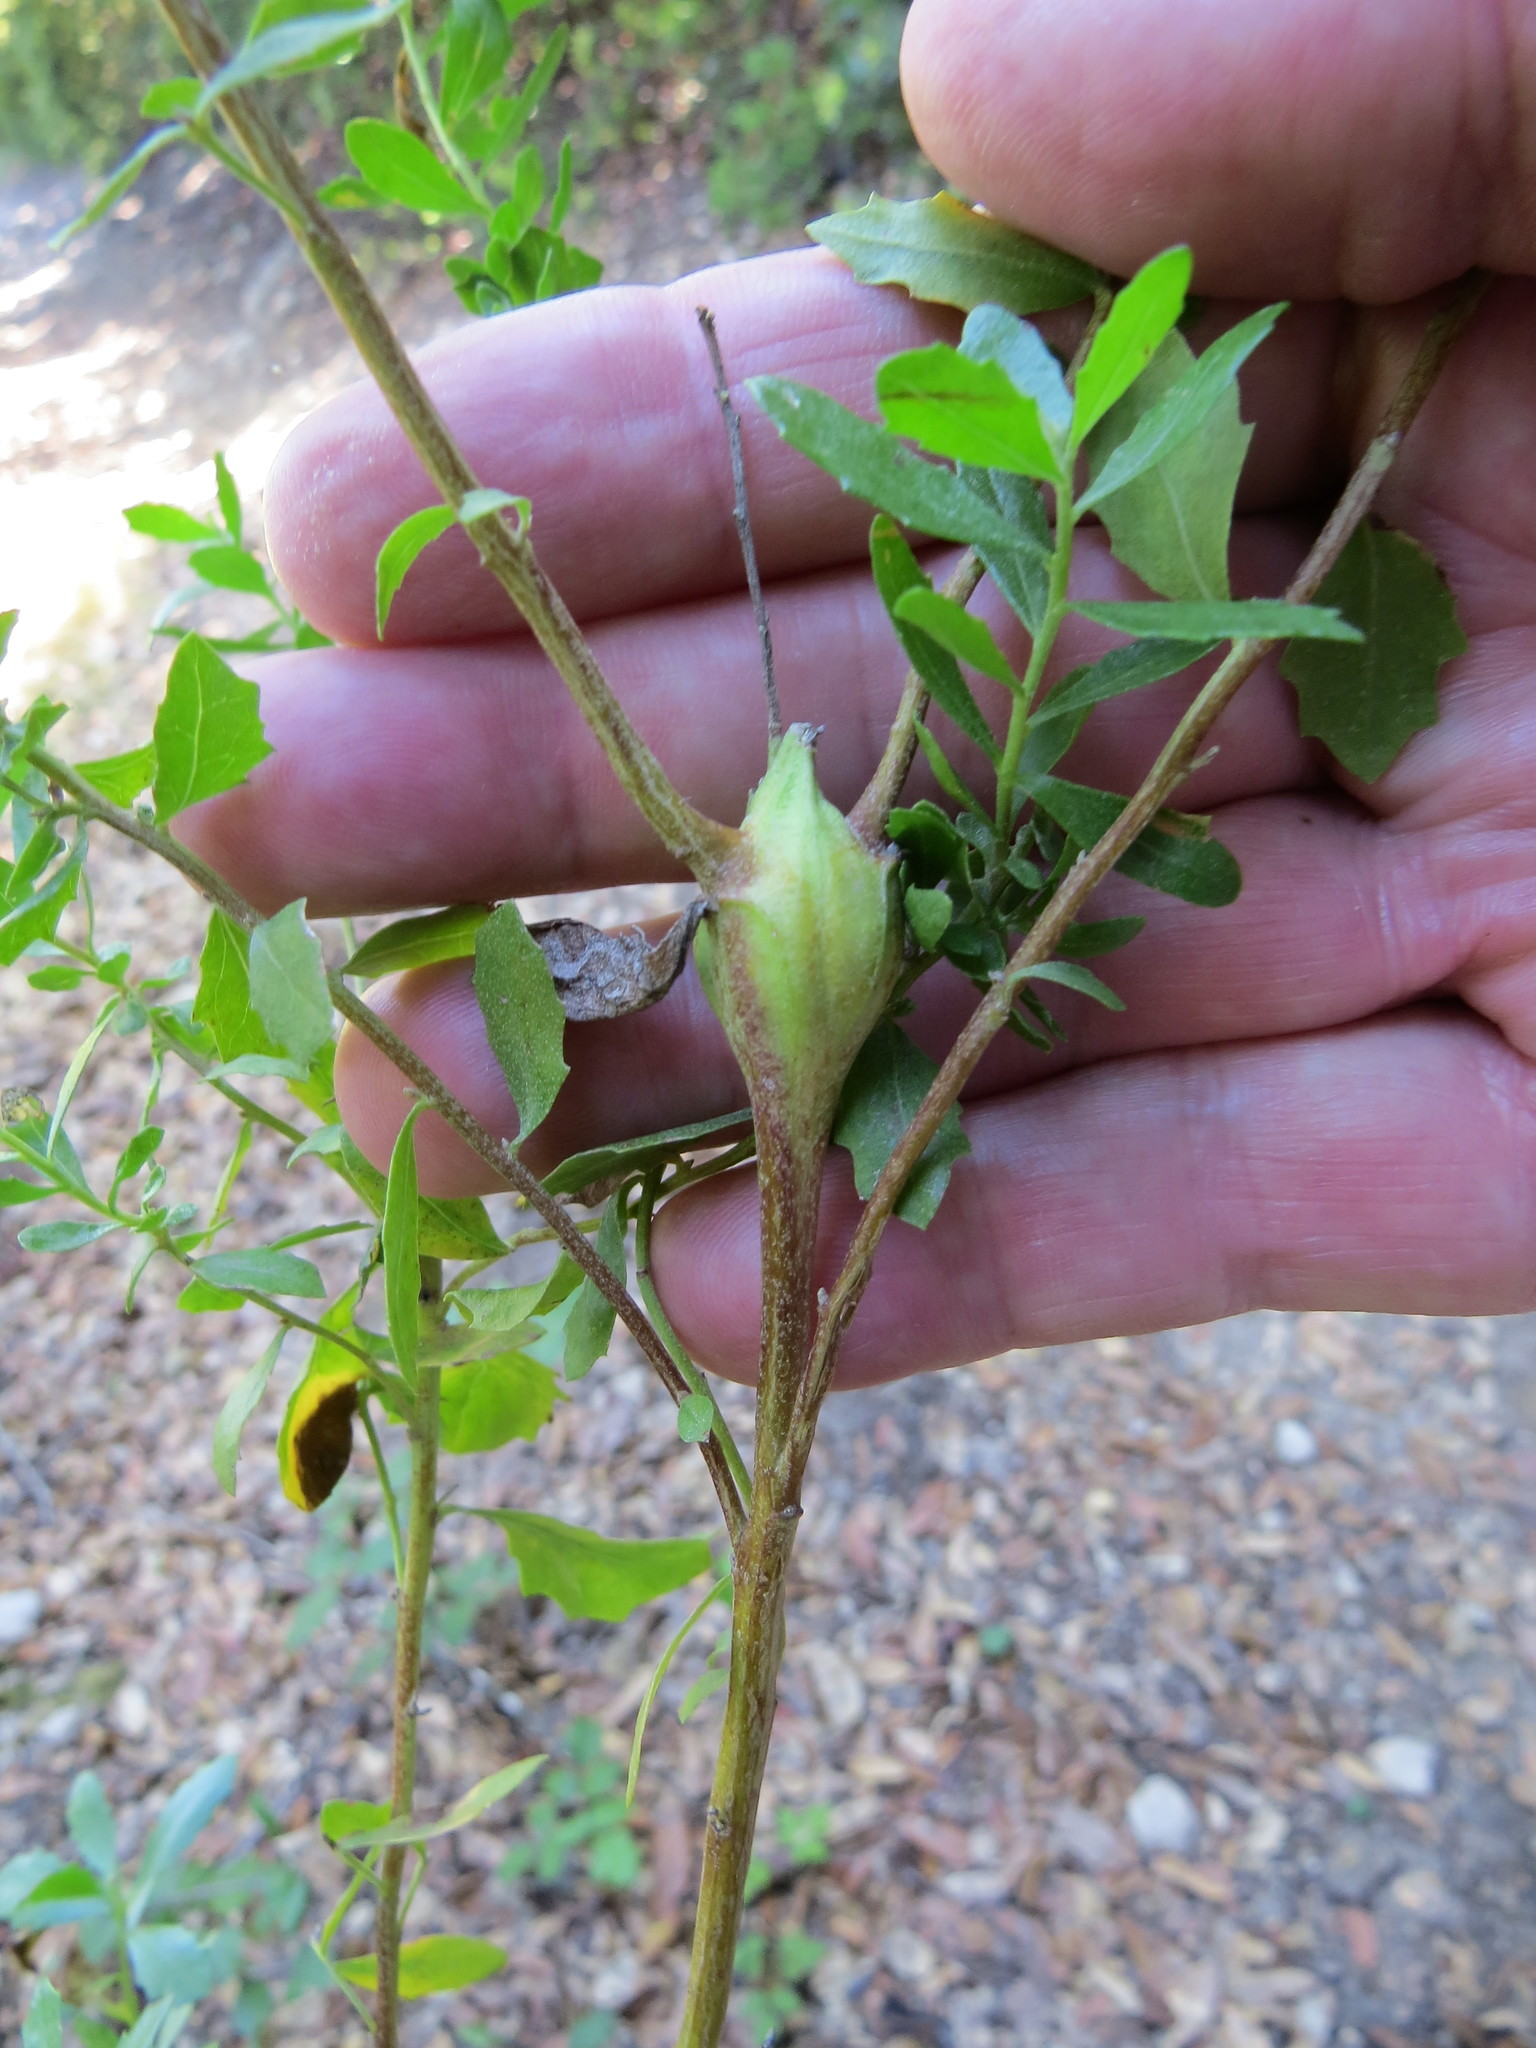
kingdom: Animalia
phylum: Arthropoda
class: Insecta
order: Lepidoptera
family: Gelechiidae
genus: Gnorimoschema
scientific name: Gnorimoschema baccharisella
